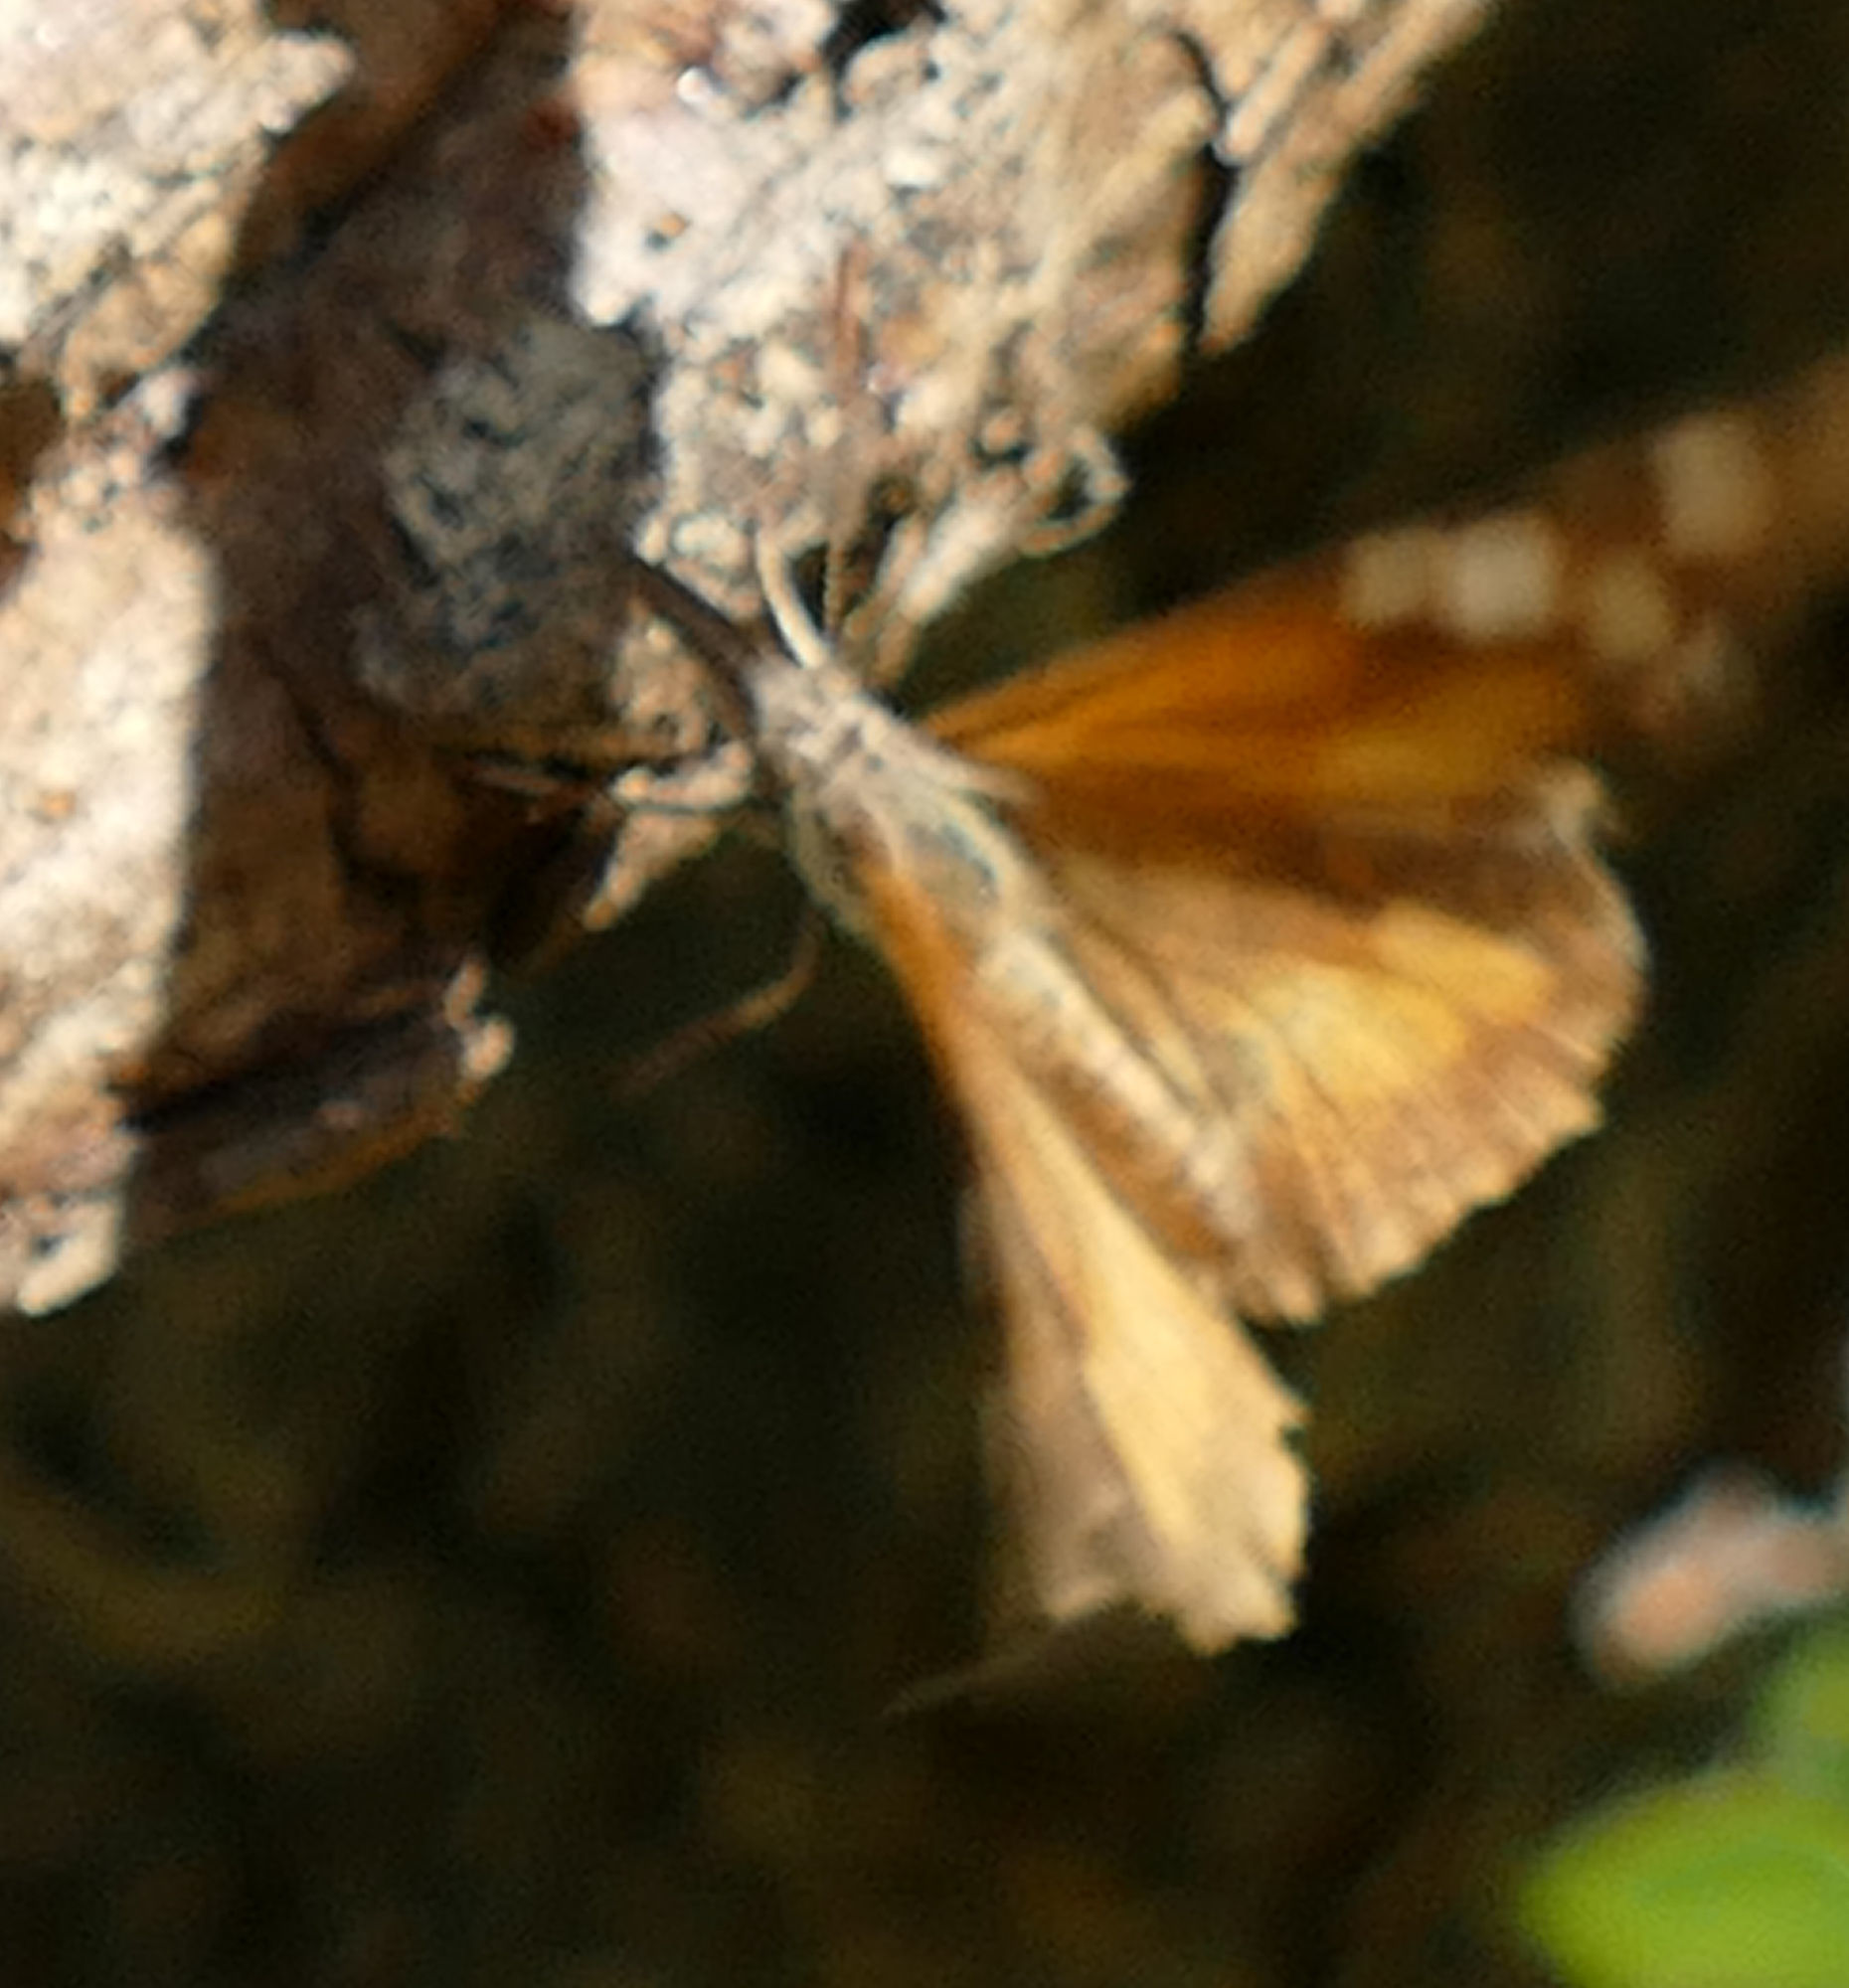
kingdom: Animalia
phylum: Arthropoda
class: Insecta
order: Lepidoptera
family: Nymphalidae
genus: Libytheana
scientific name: Libytheana carinenta
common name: American snout
